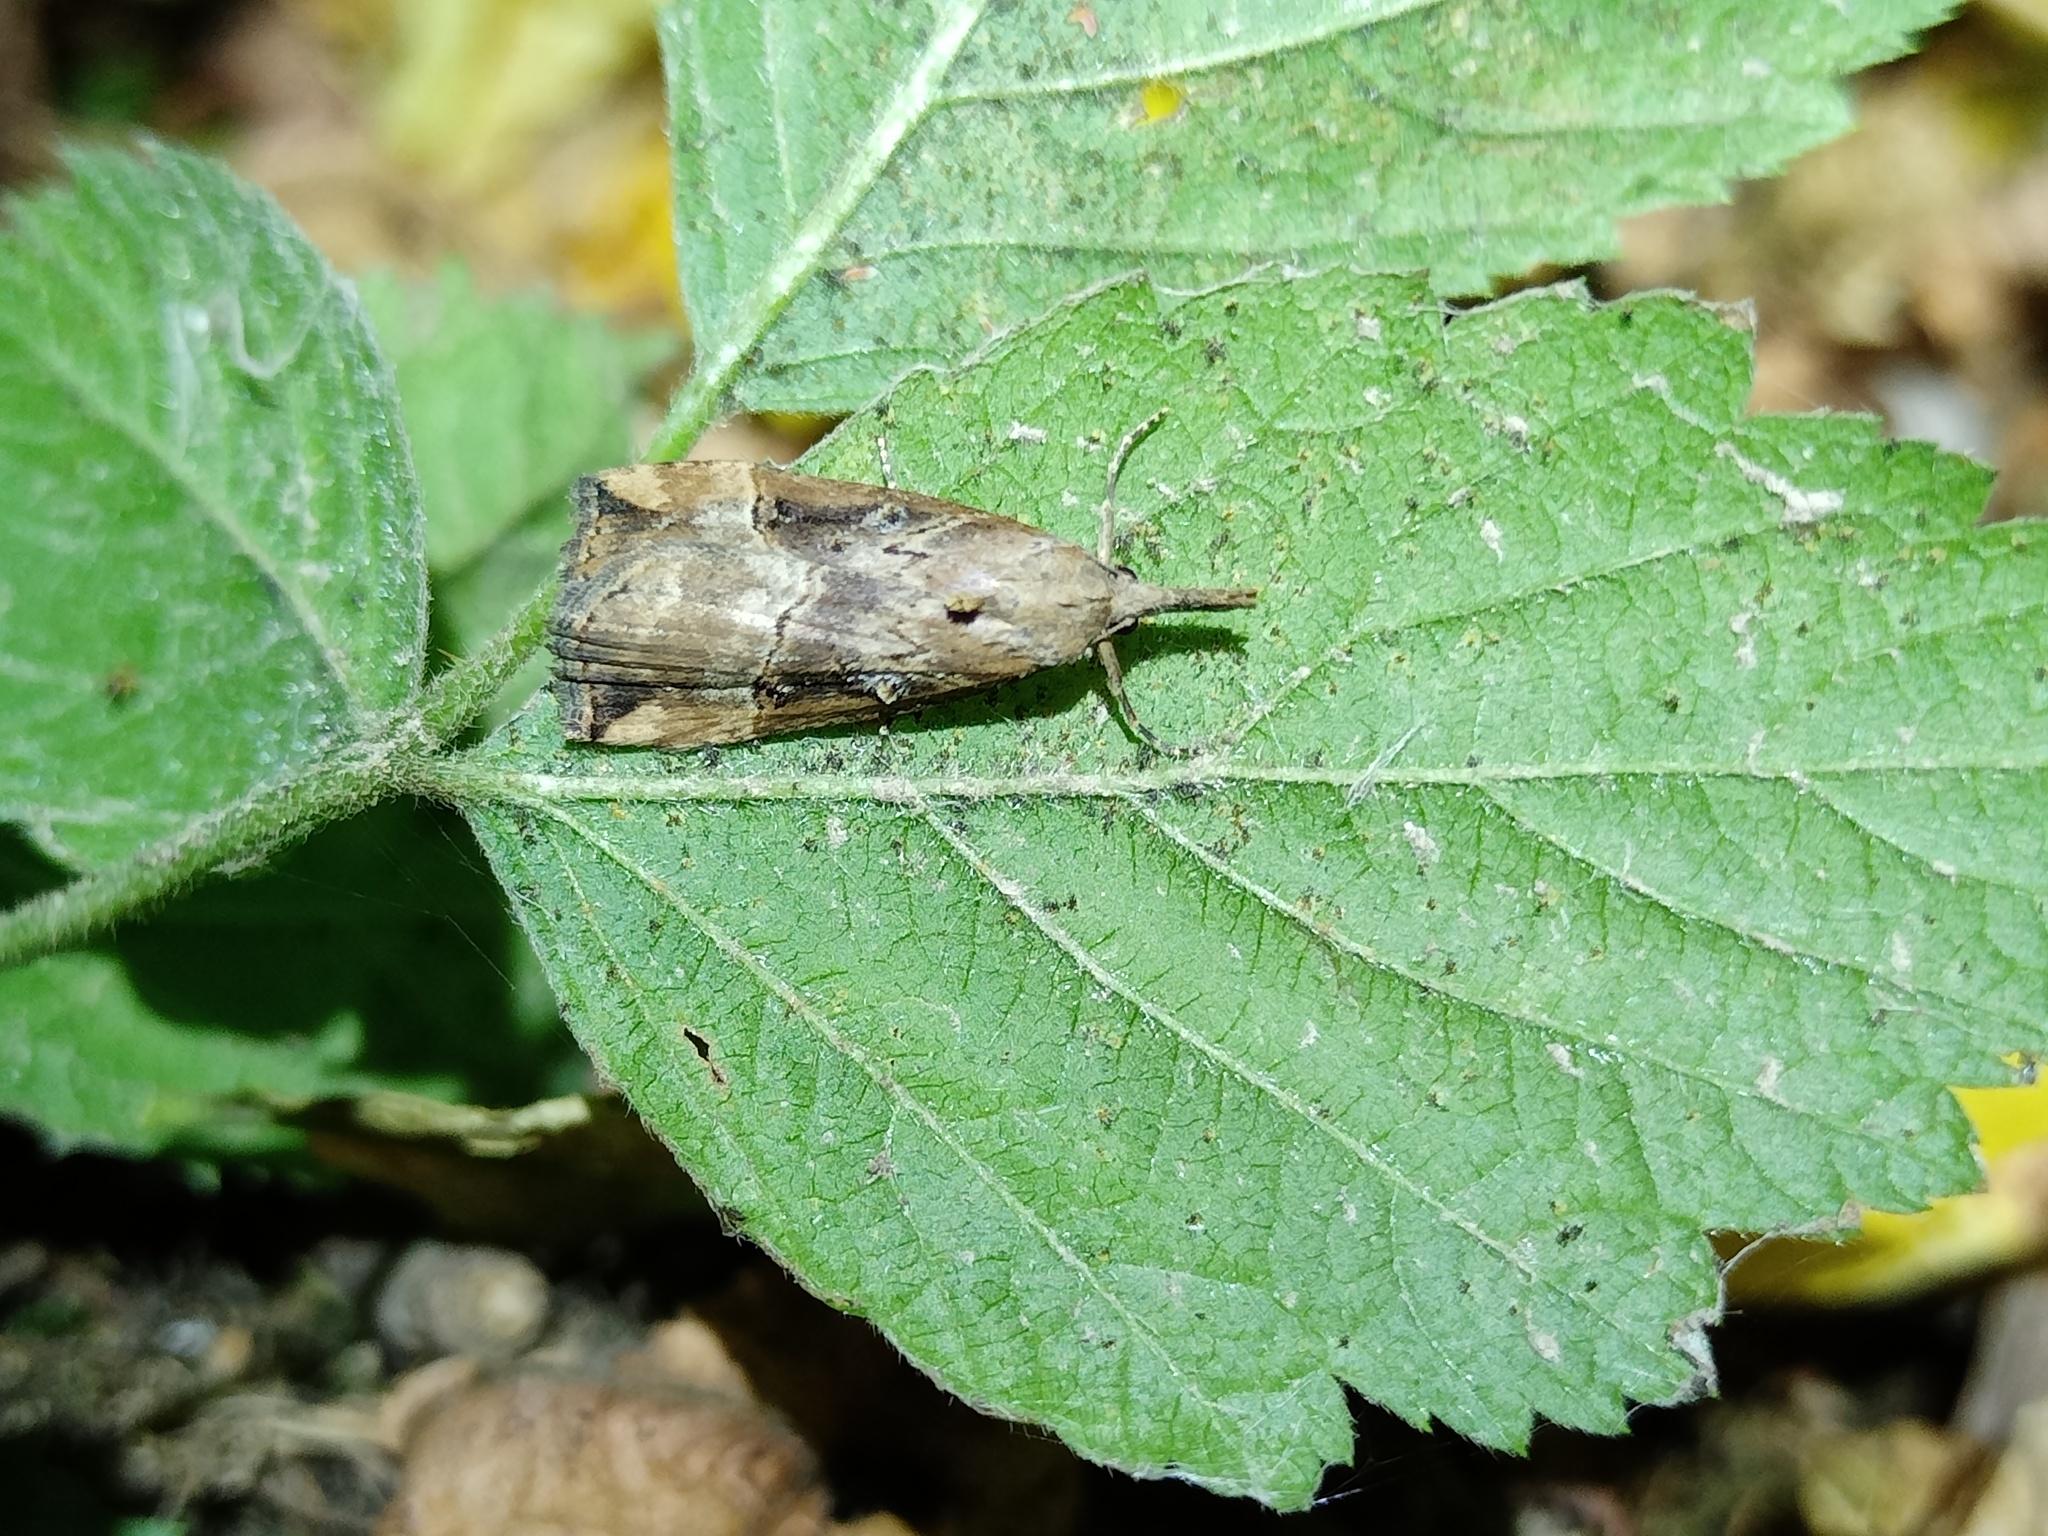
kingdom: Animalia
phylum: Arthropoda
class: Insecta
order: Lepidoptera
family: Erebidae
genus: Hypena
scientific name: Hypena rostralis
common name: Buttoned snout
